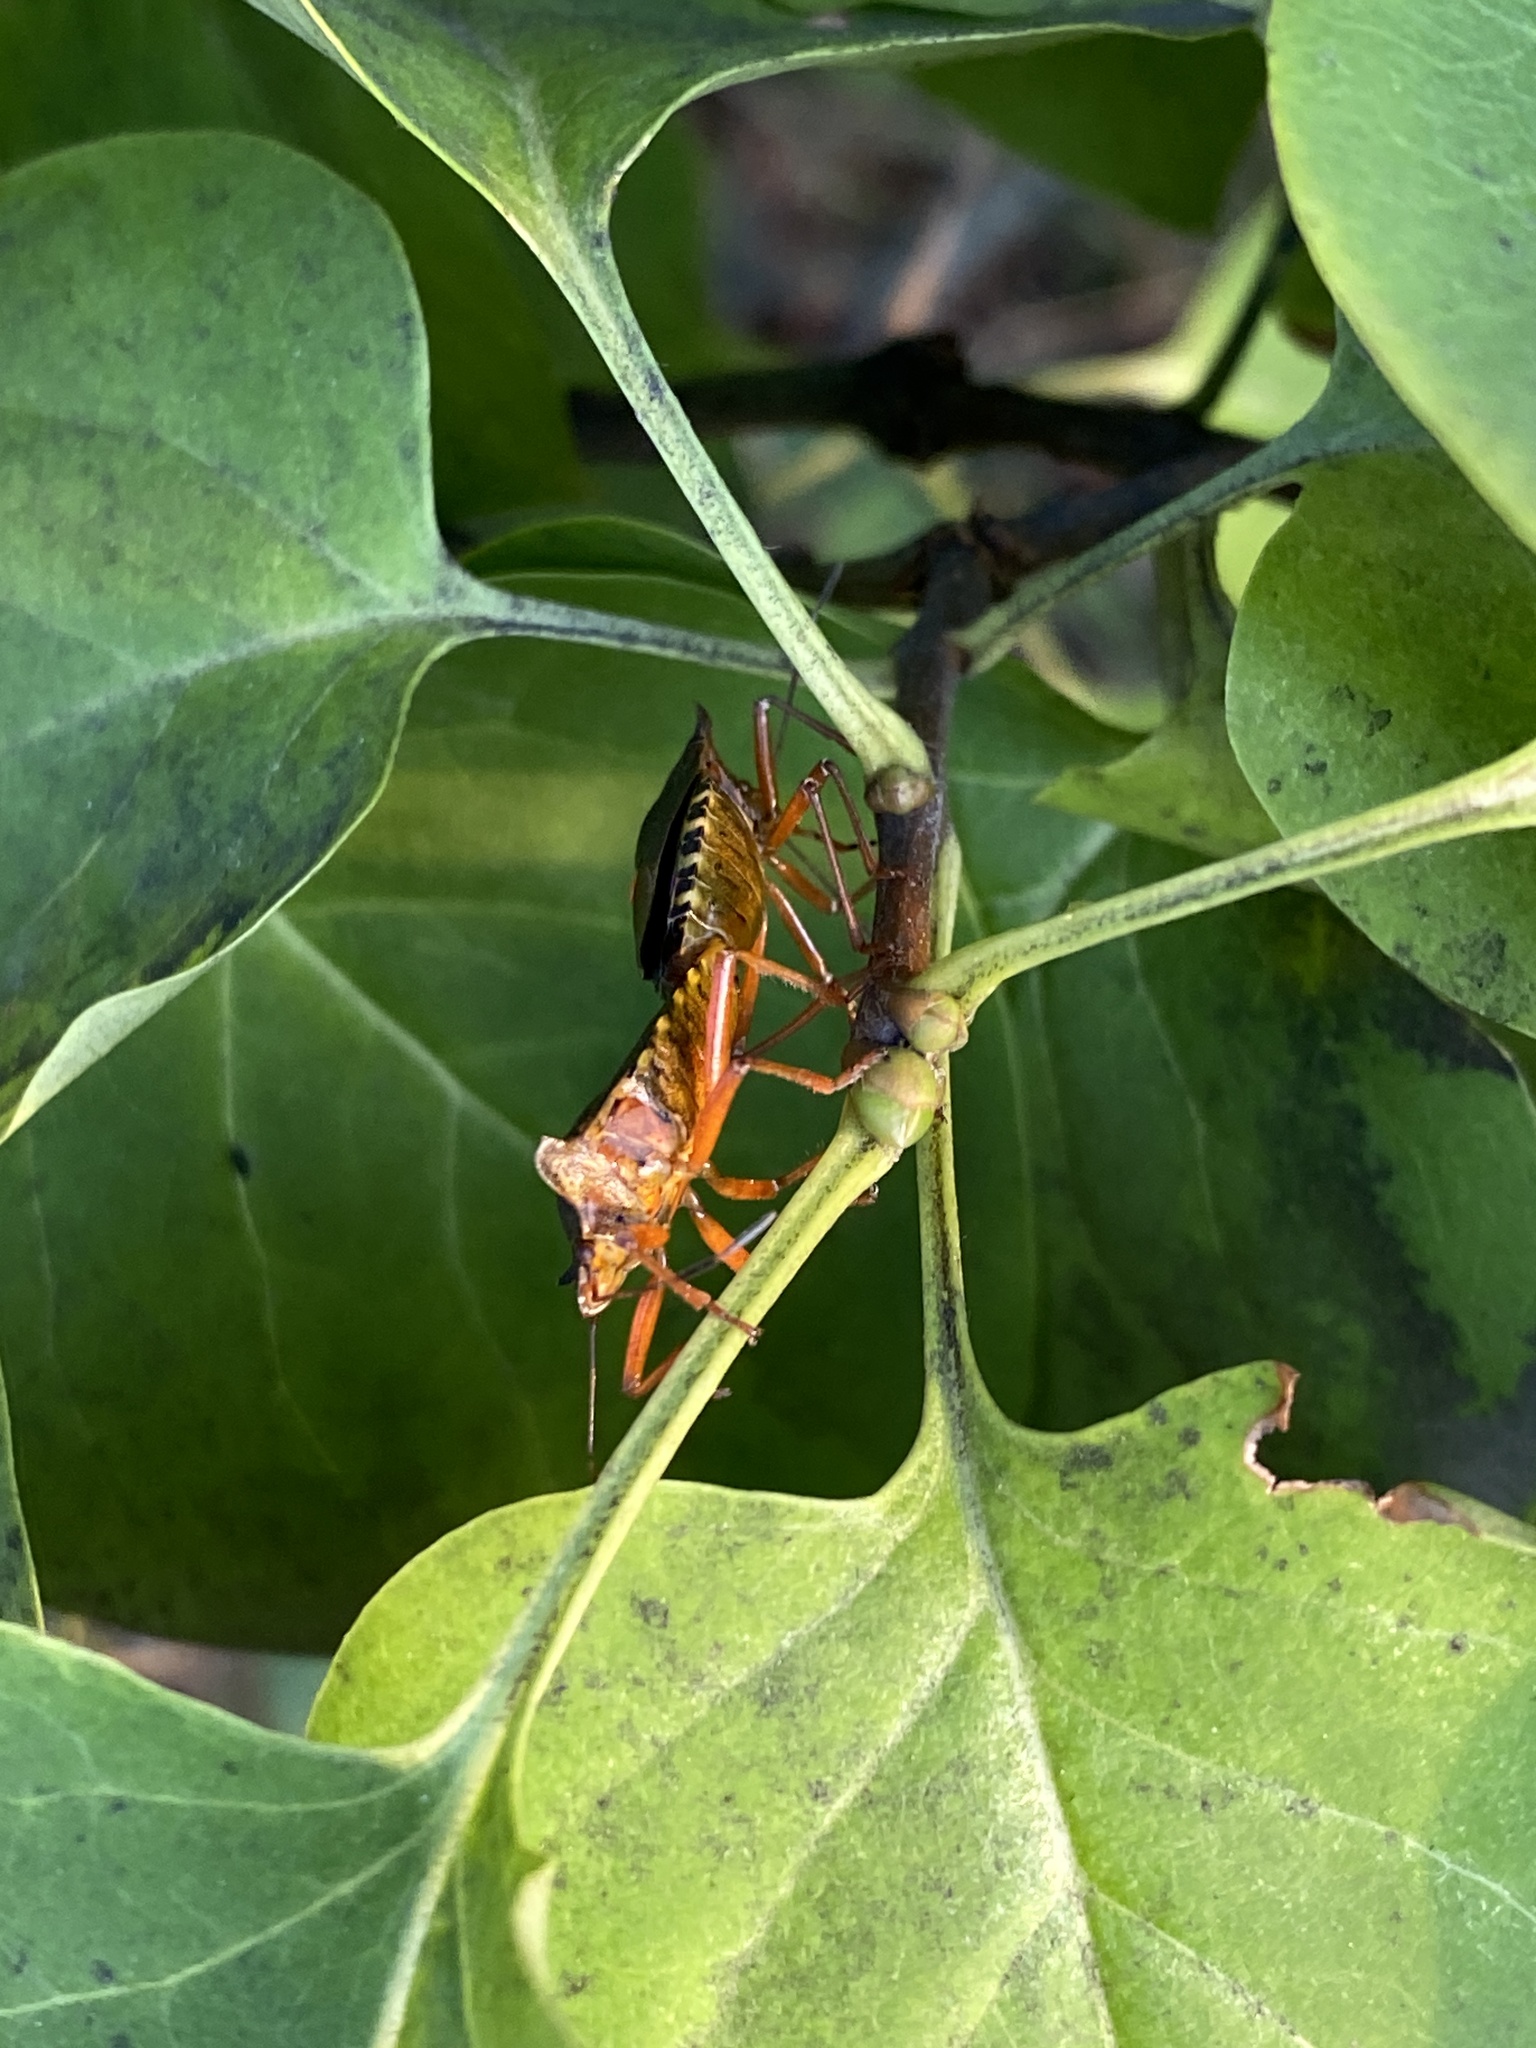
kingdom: Animalia
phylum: Arthropoda
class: Insecta
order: Hemiptera
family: Pentatomidae
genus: Pentatoma
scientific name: Pentatoma rufipes
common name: Forest bug
